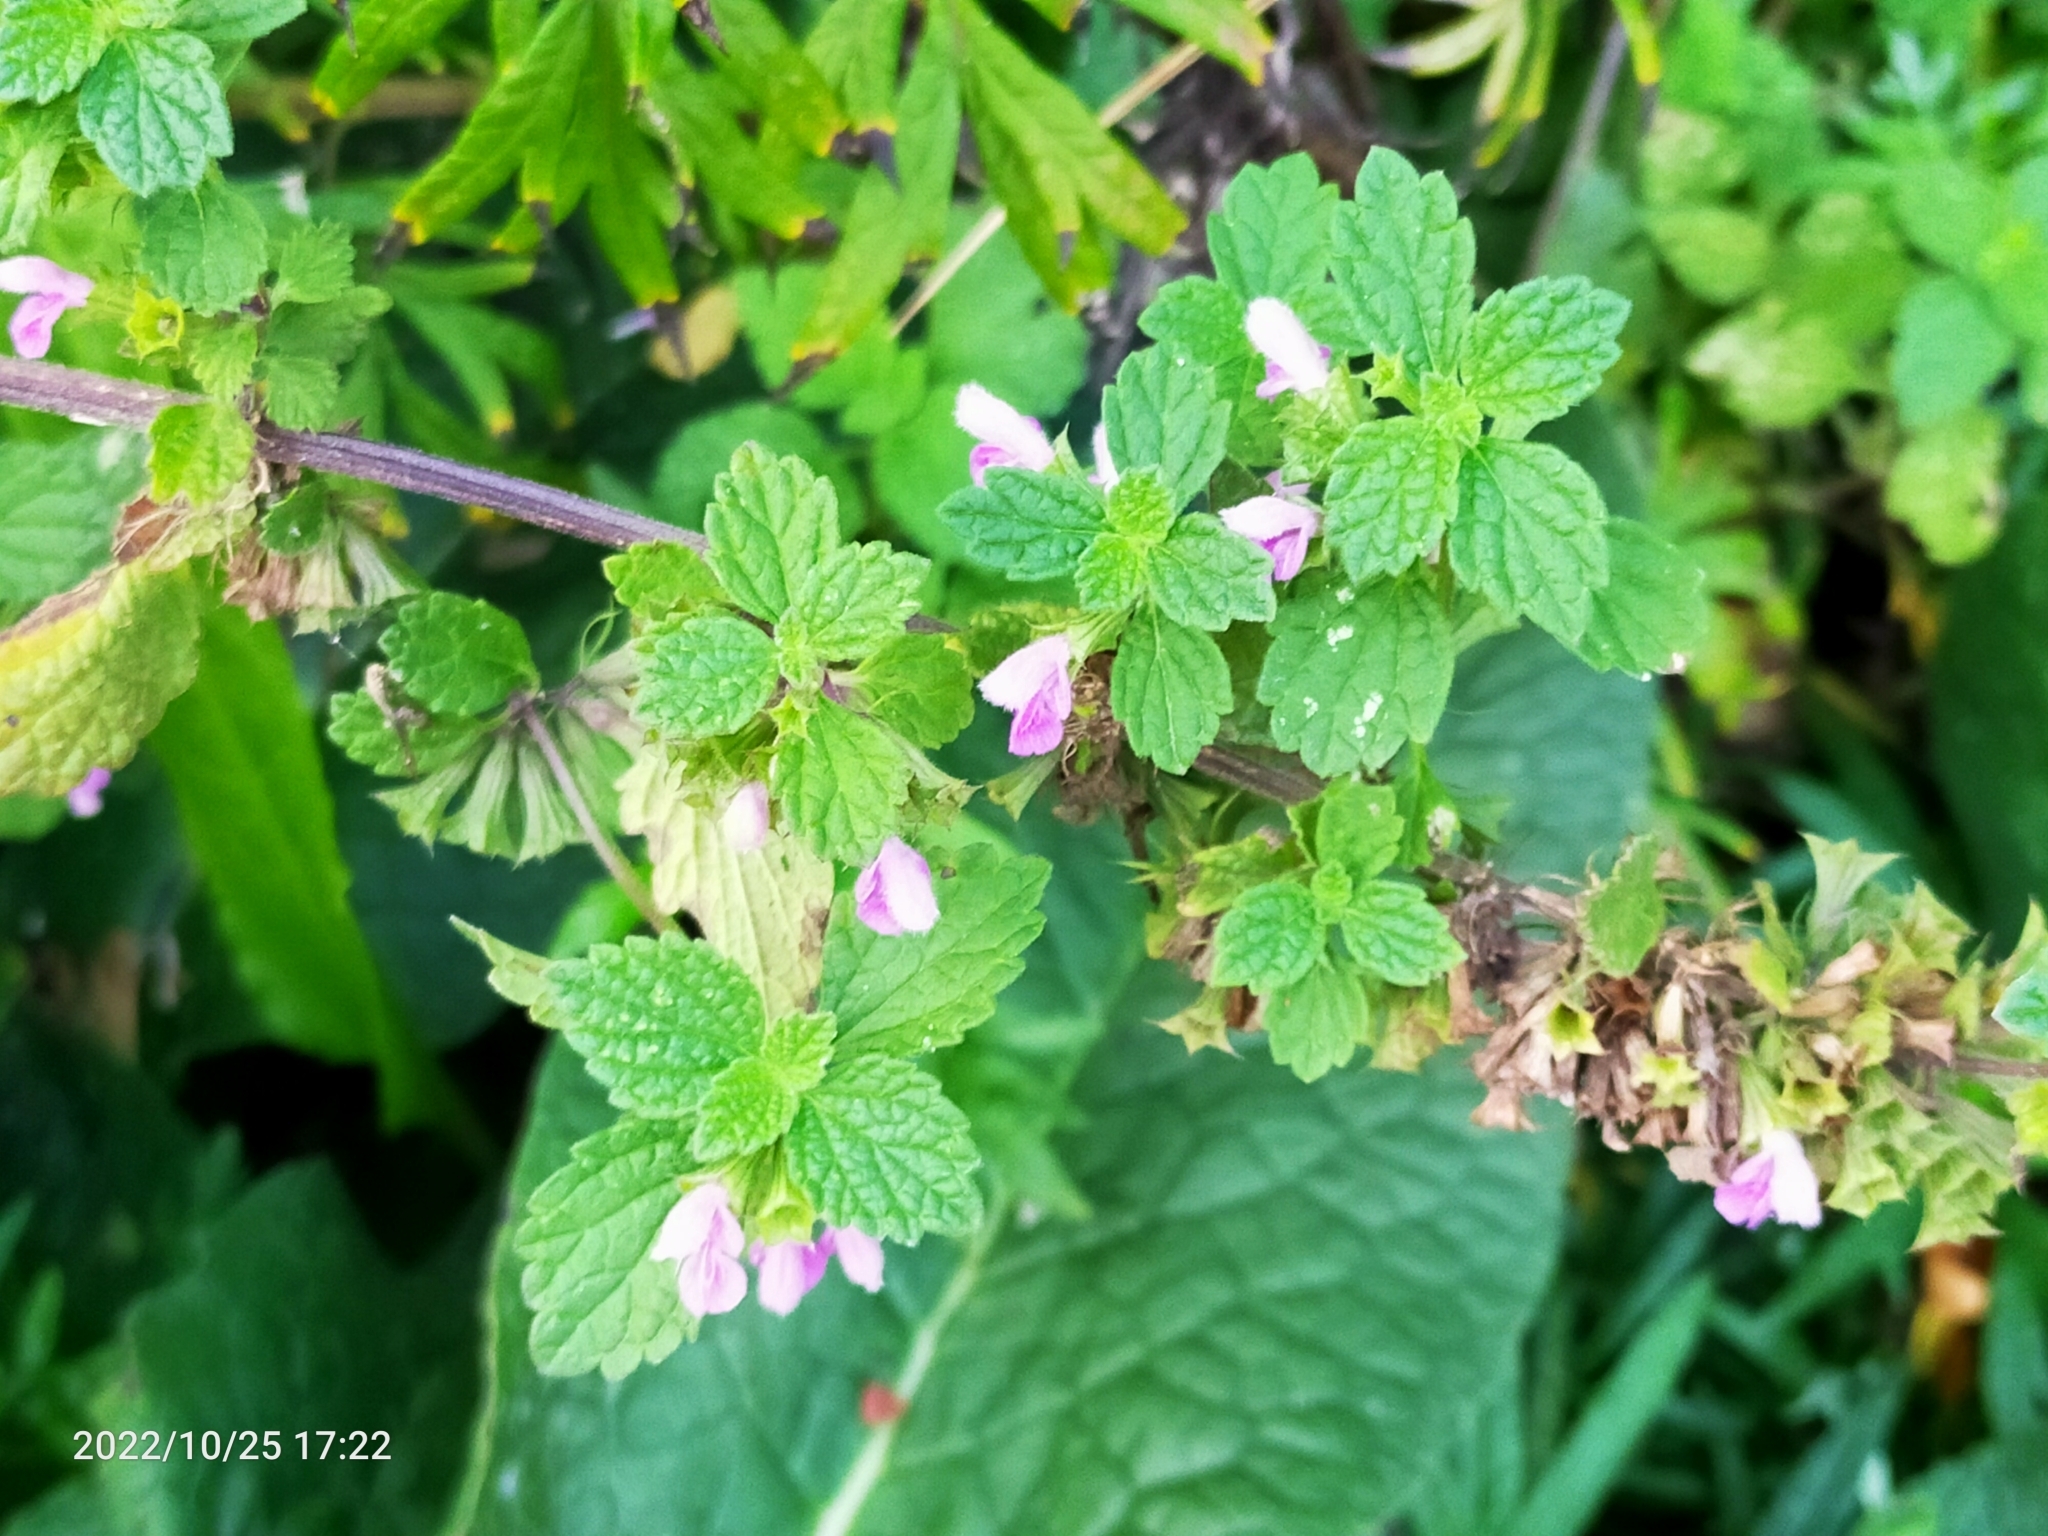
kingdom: Plantae
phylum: Tracheophyta
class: Magnoliopsida
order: Lamiales
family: Lamiaceae
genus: Ballota
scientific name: Ballota nigra
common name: Black horehound
